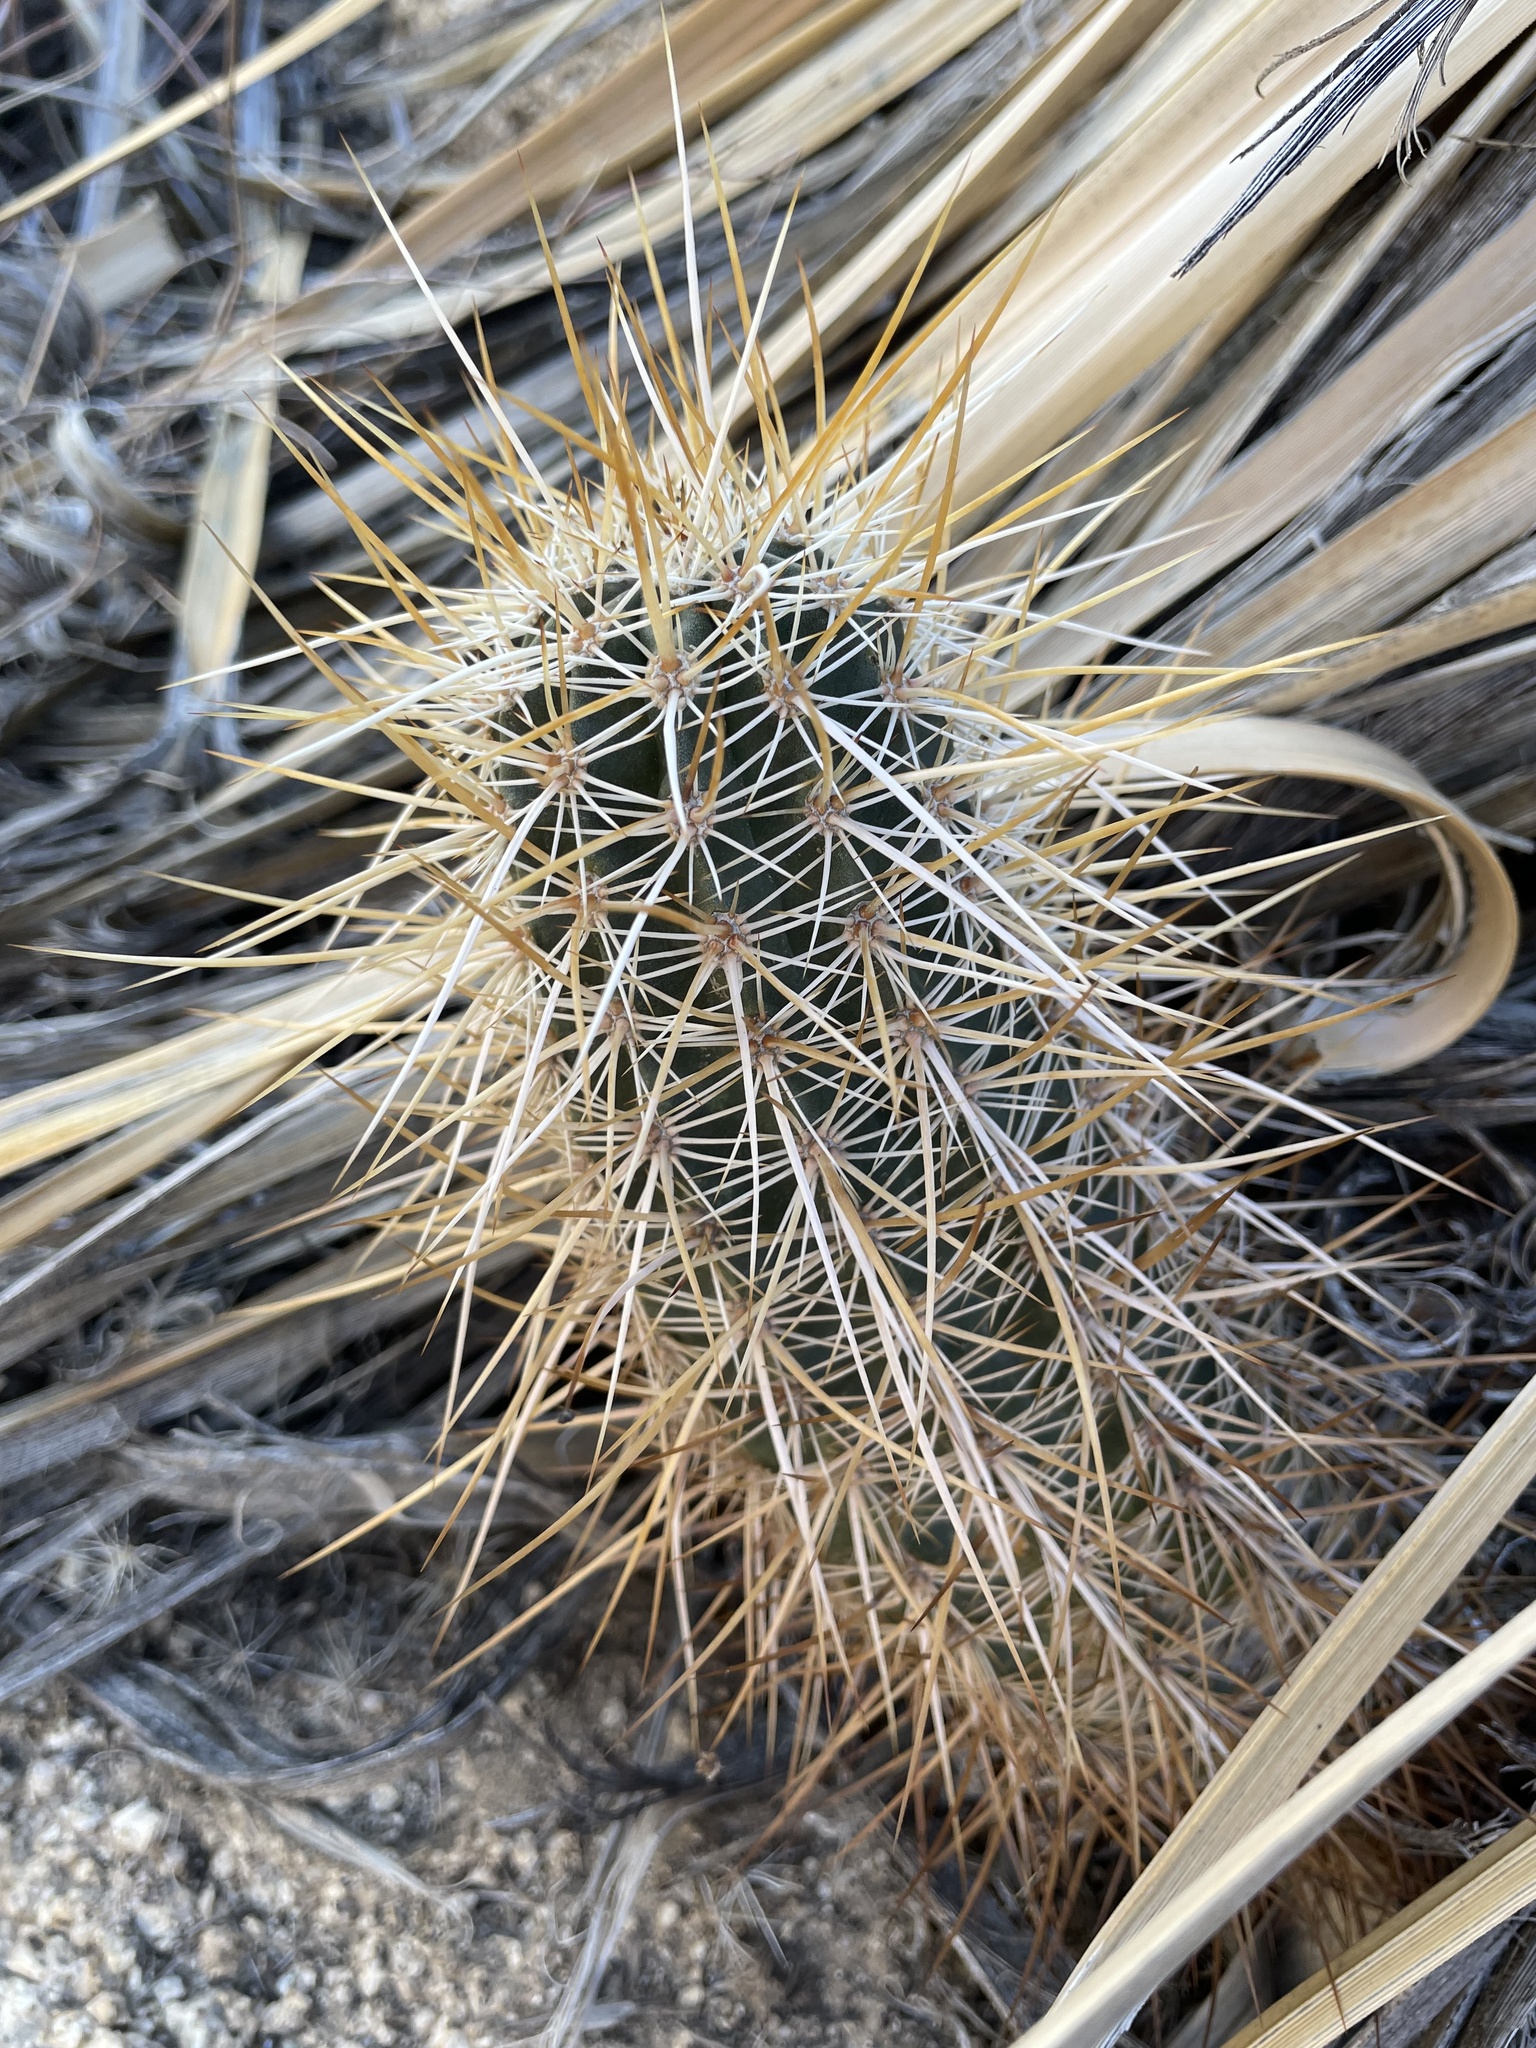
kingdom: Plantae
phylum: Tracheophyta
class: Magnoliopsida
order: Caryophyllales
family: Cactaceae
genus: Echinocereus
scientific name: Echinocereus engelmannii
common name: Engelmann's hedgehog cactus
